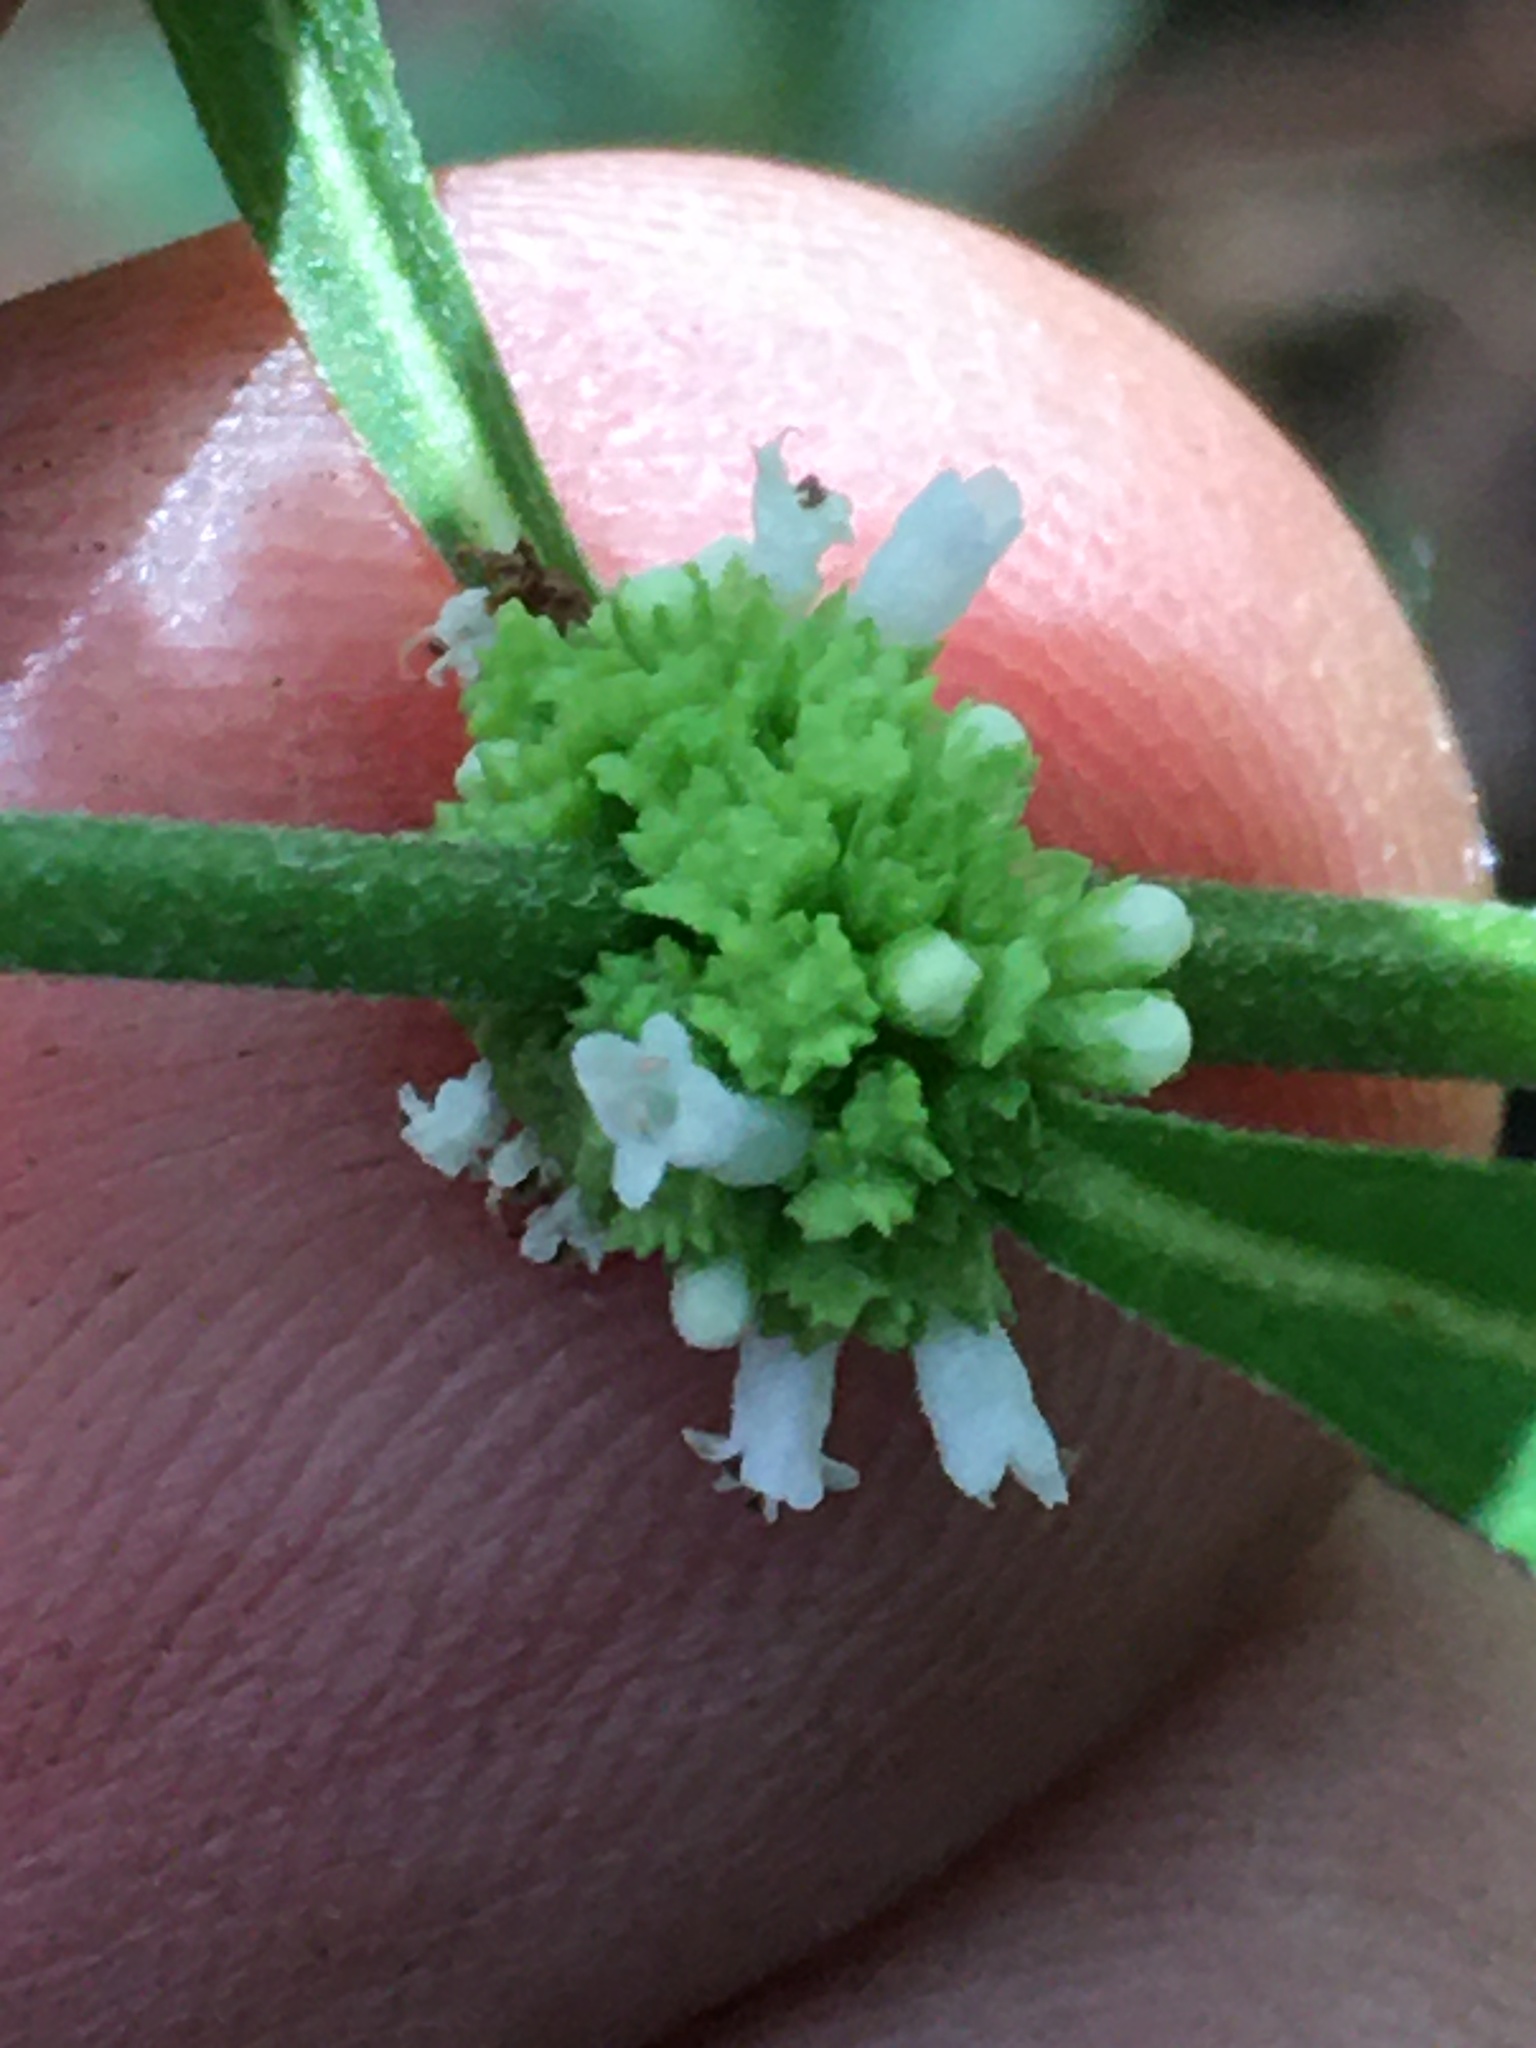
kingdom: Plantae
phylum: Tracheophyta
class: Magnoliopsida
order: Lamiales
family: Lamiaceae
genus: Lycopus
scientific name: Lycopus uniflorus
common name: Northern bugleweed
